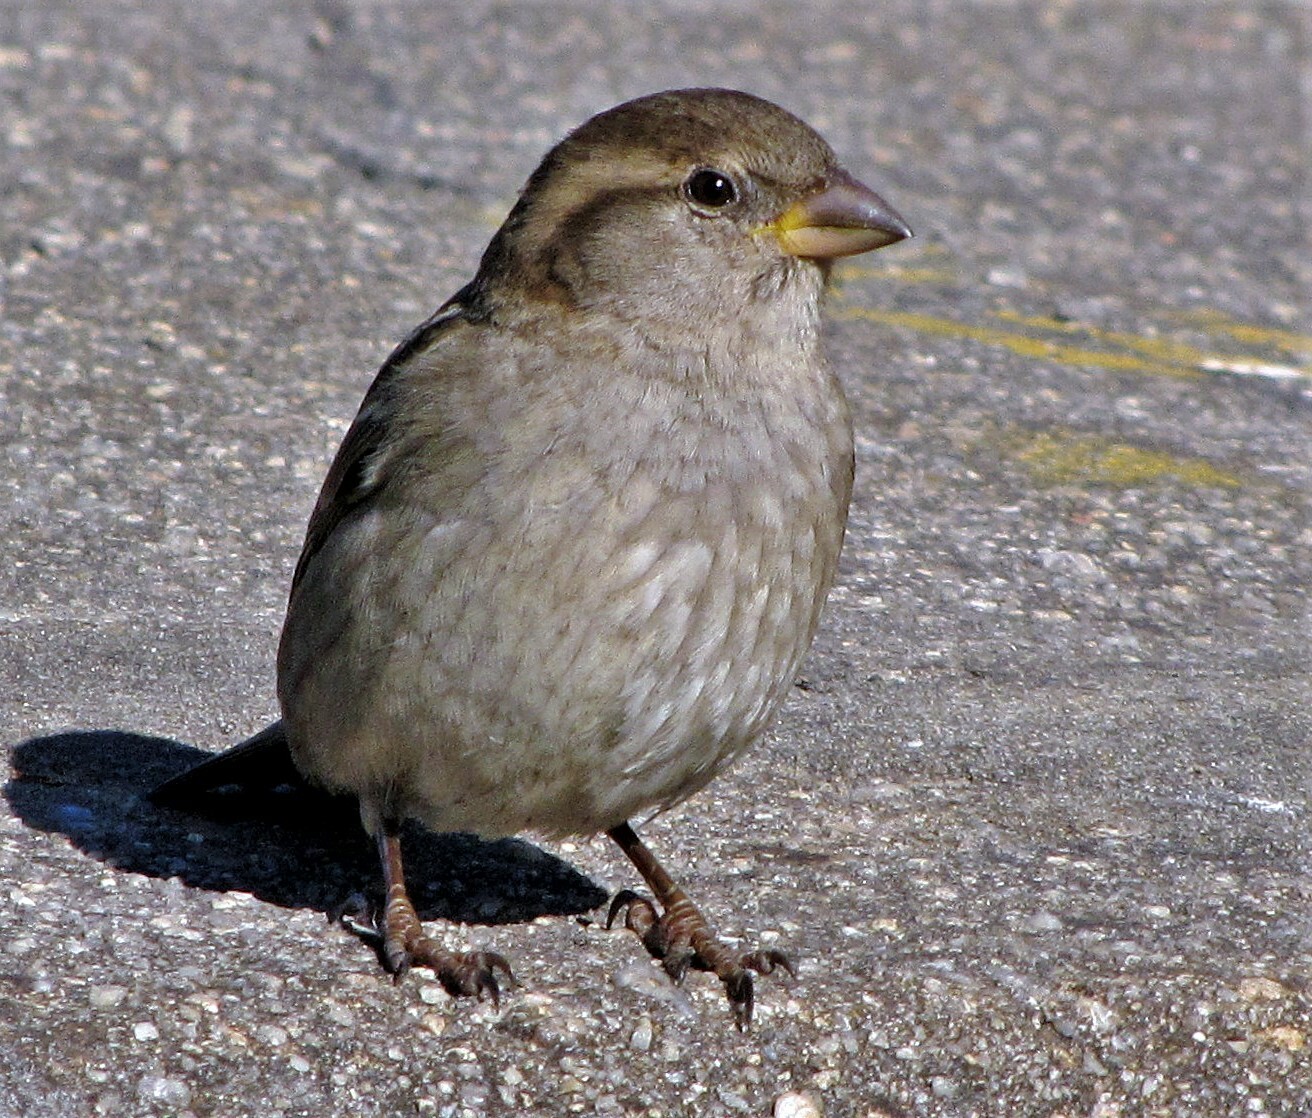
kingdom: Animalia
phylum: Chordata
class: Aves
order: Passeriformes
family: Passeridae
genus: Passer
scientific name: Passer domesticus
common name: House sparrow
